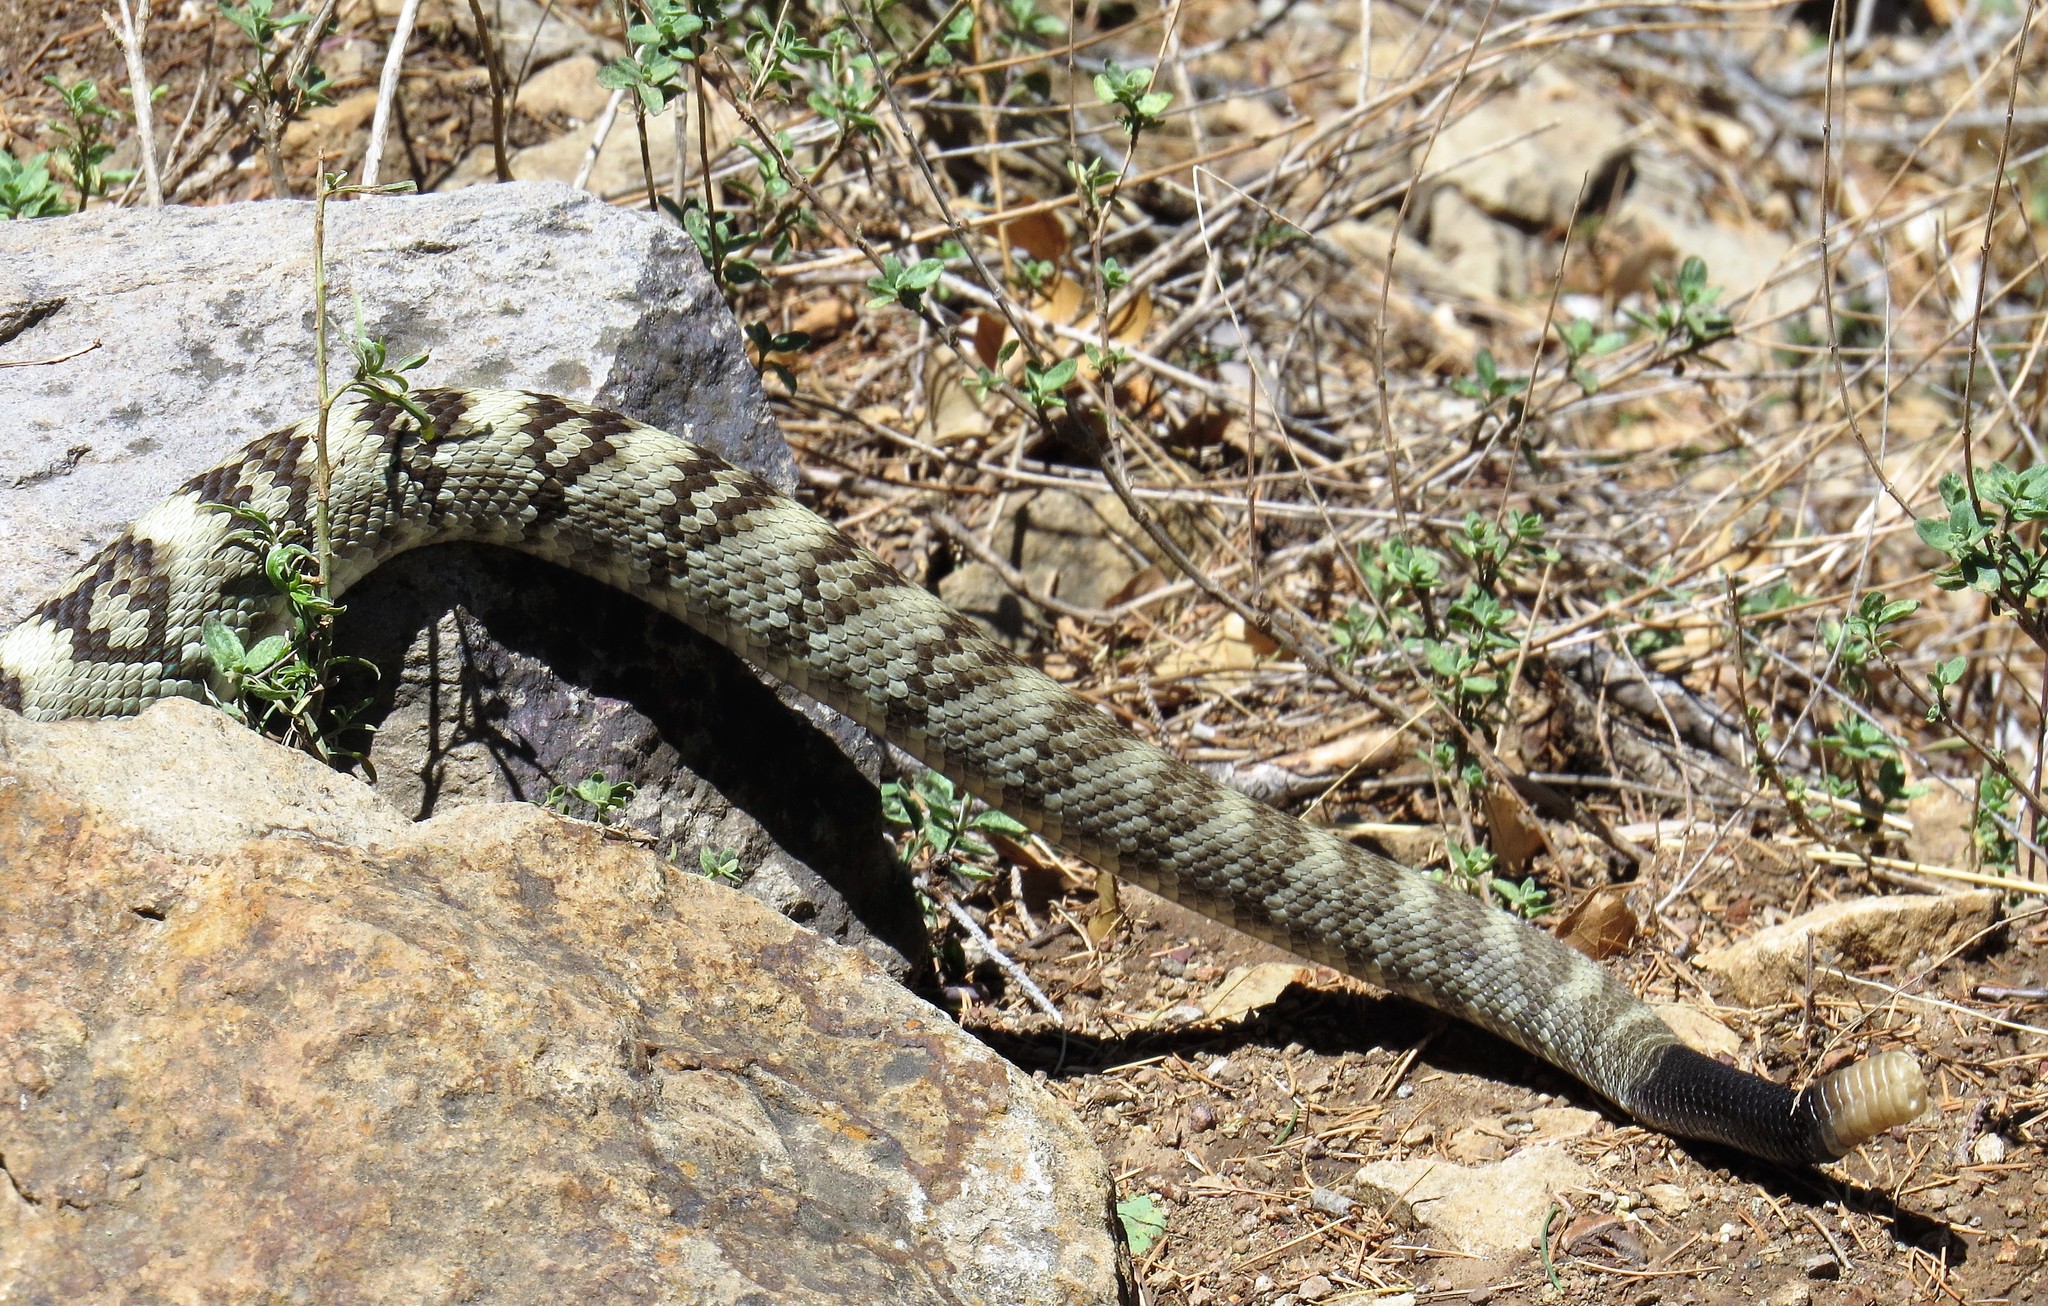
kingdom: Animalia
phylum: Chordata
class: Squamata
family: Viperidae
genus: Crotalus
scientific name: Crotalus ornatus
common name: Black-tailed rattlesnake
